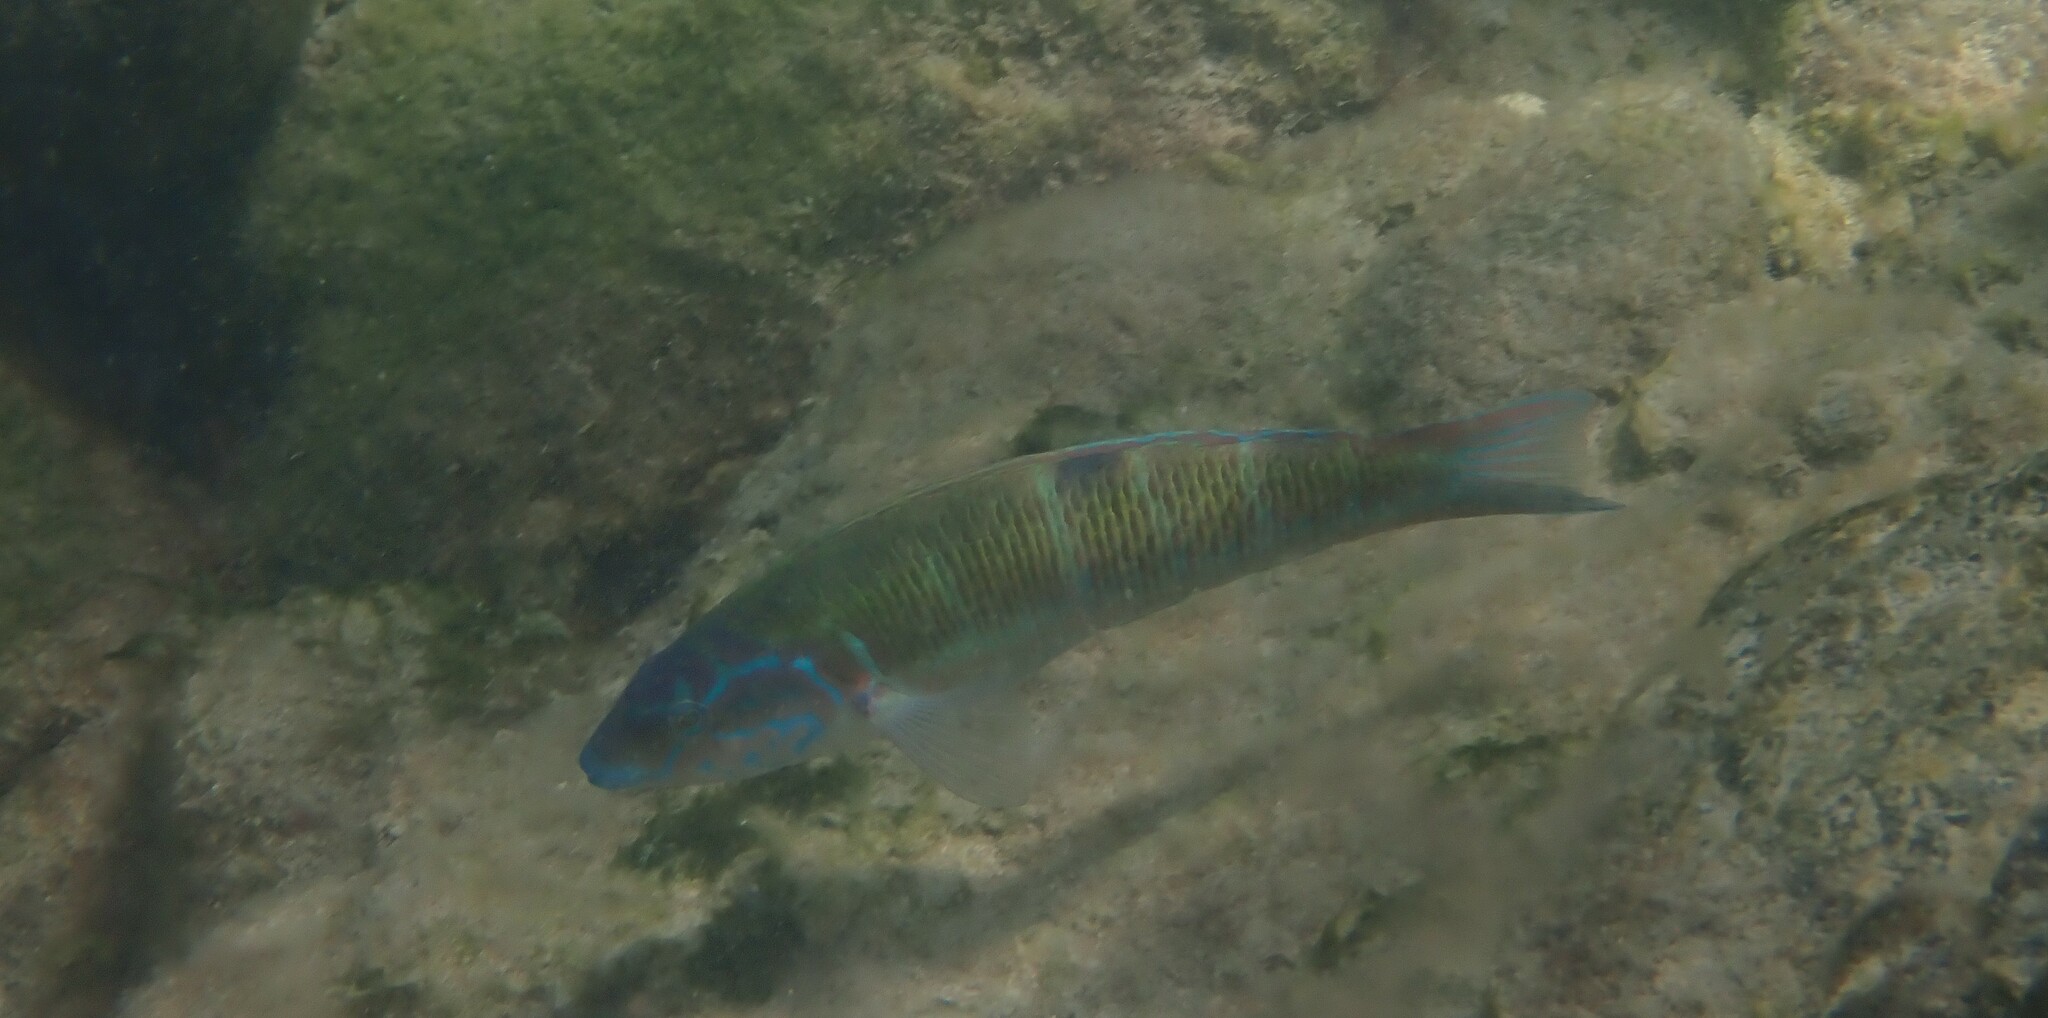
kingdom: Animalia
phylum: Chordata
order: Perciformes
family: Labridae
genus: Thalassoma
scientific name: Thalassoma pavo
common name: Ornate wrasse
